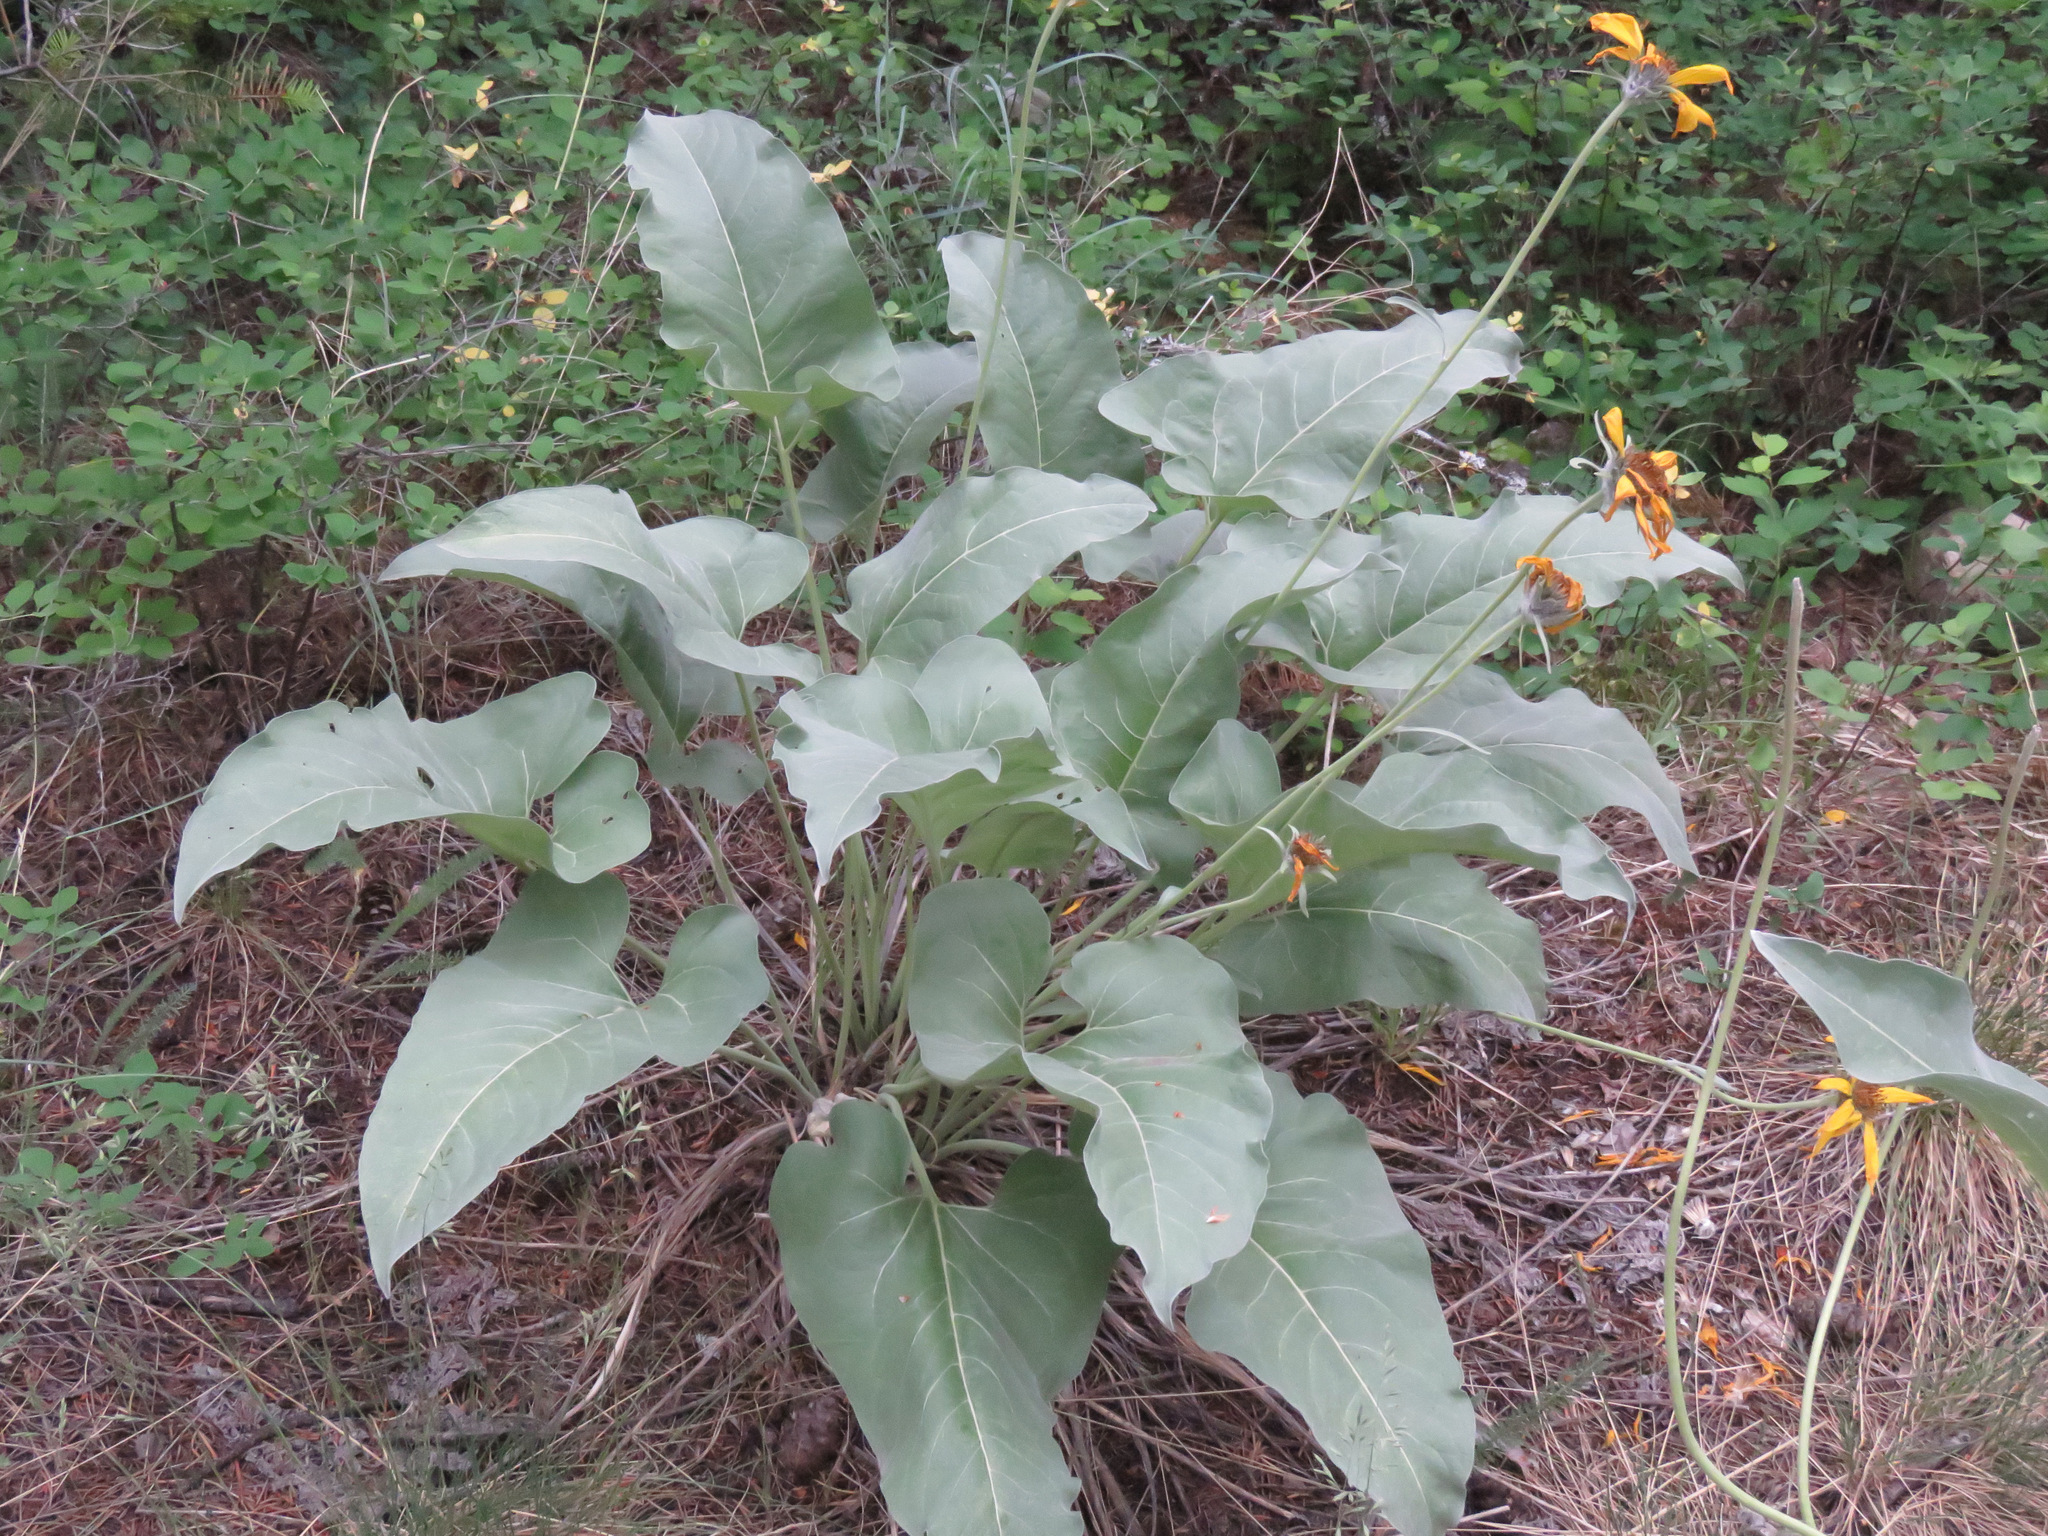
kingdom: Plantae
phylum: Tracheophyta
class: Magnoliopsida
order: Asterales
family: Asteraceae
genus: Wyethia
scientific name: Wyethia sagittata
